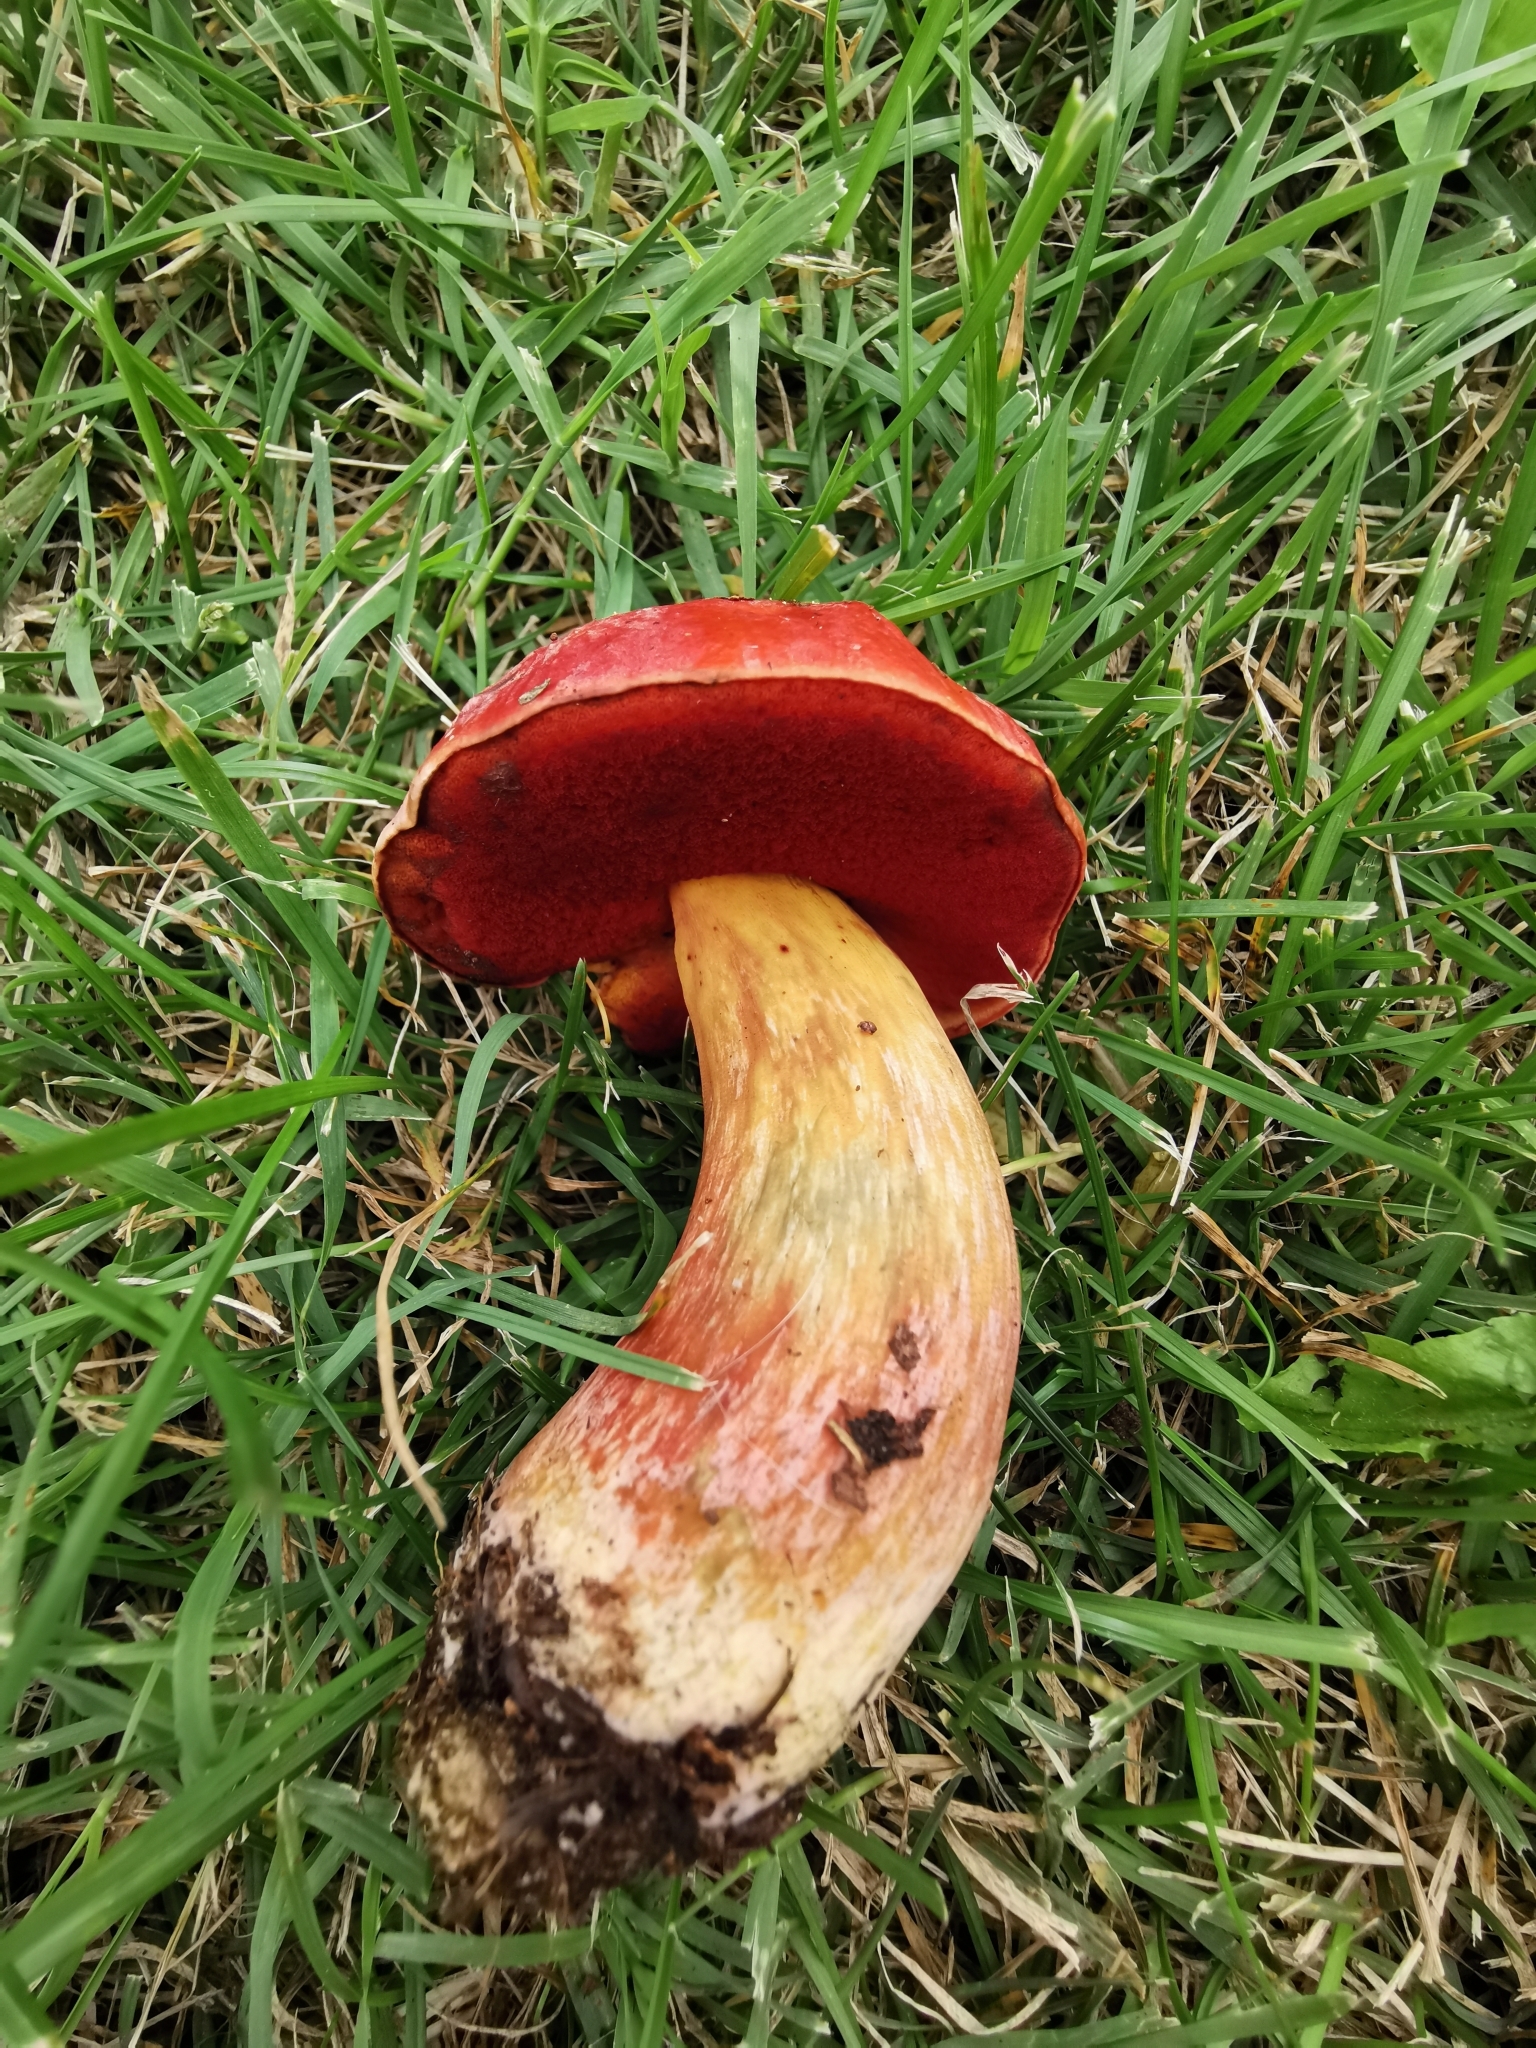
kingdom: Fungi
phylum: Basidiomycota
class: Agaricomycetes
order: Boletales
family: Boletaceae
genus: Rubroboletus
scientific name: Rubroboletus dupainii
